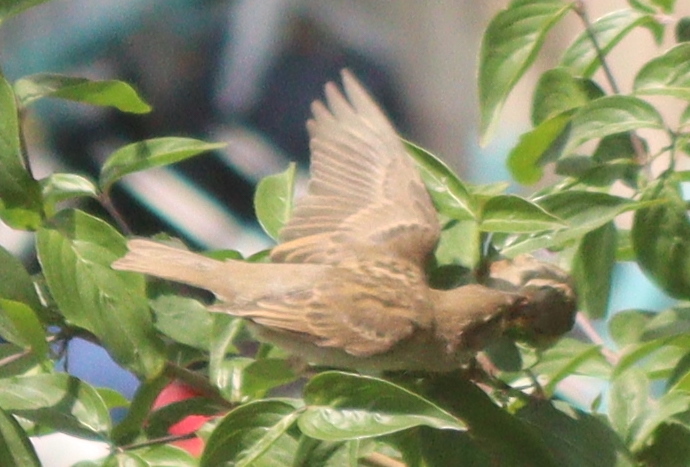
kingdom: Animalia
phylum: Chordata
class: Aves
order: Passeriformes
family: Passeridae
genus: Passer
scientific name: Passer domesticus
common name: House sparrow
